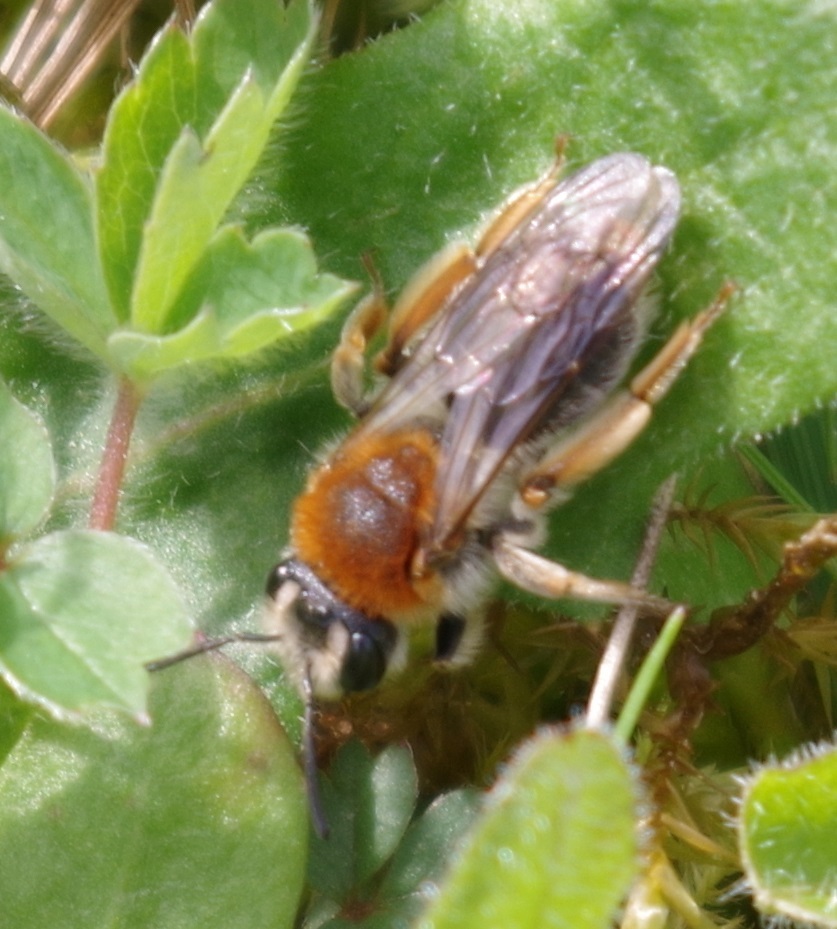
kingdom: Animalia
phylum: Arthropoda
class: Insecta
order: Hymenoptera
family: Andrenidae
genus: Andrena
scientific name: Andrena haemorrhoa
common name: Early mining bee
